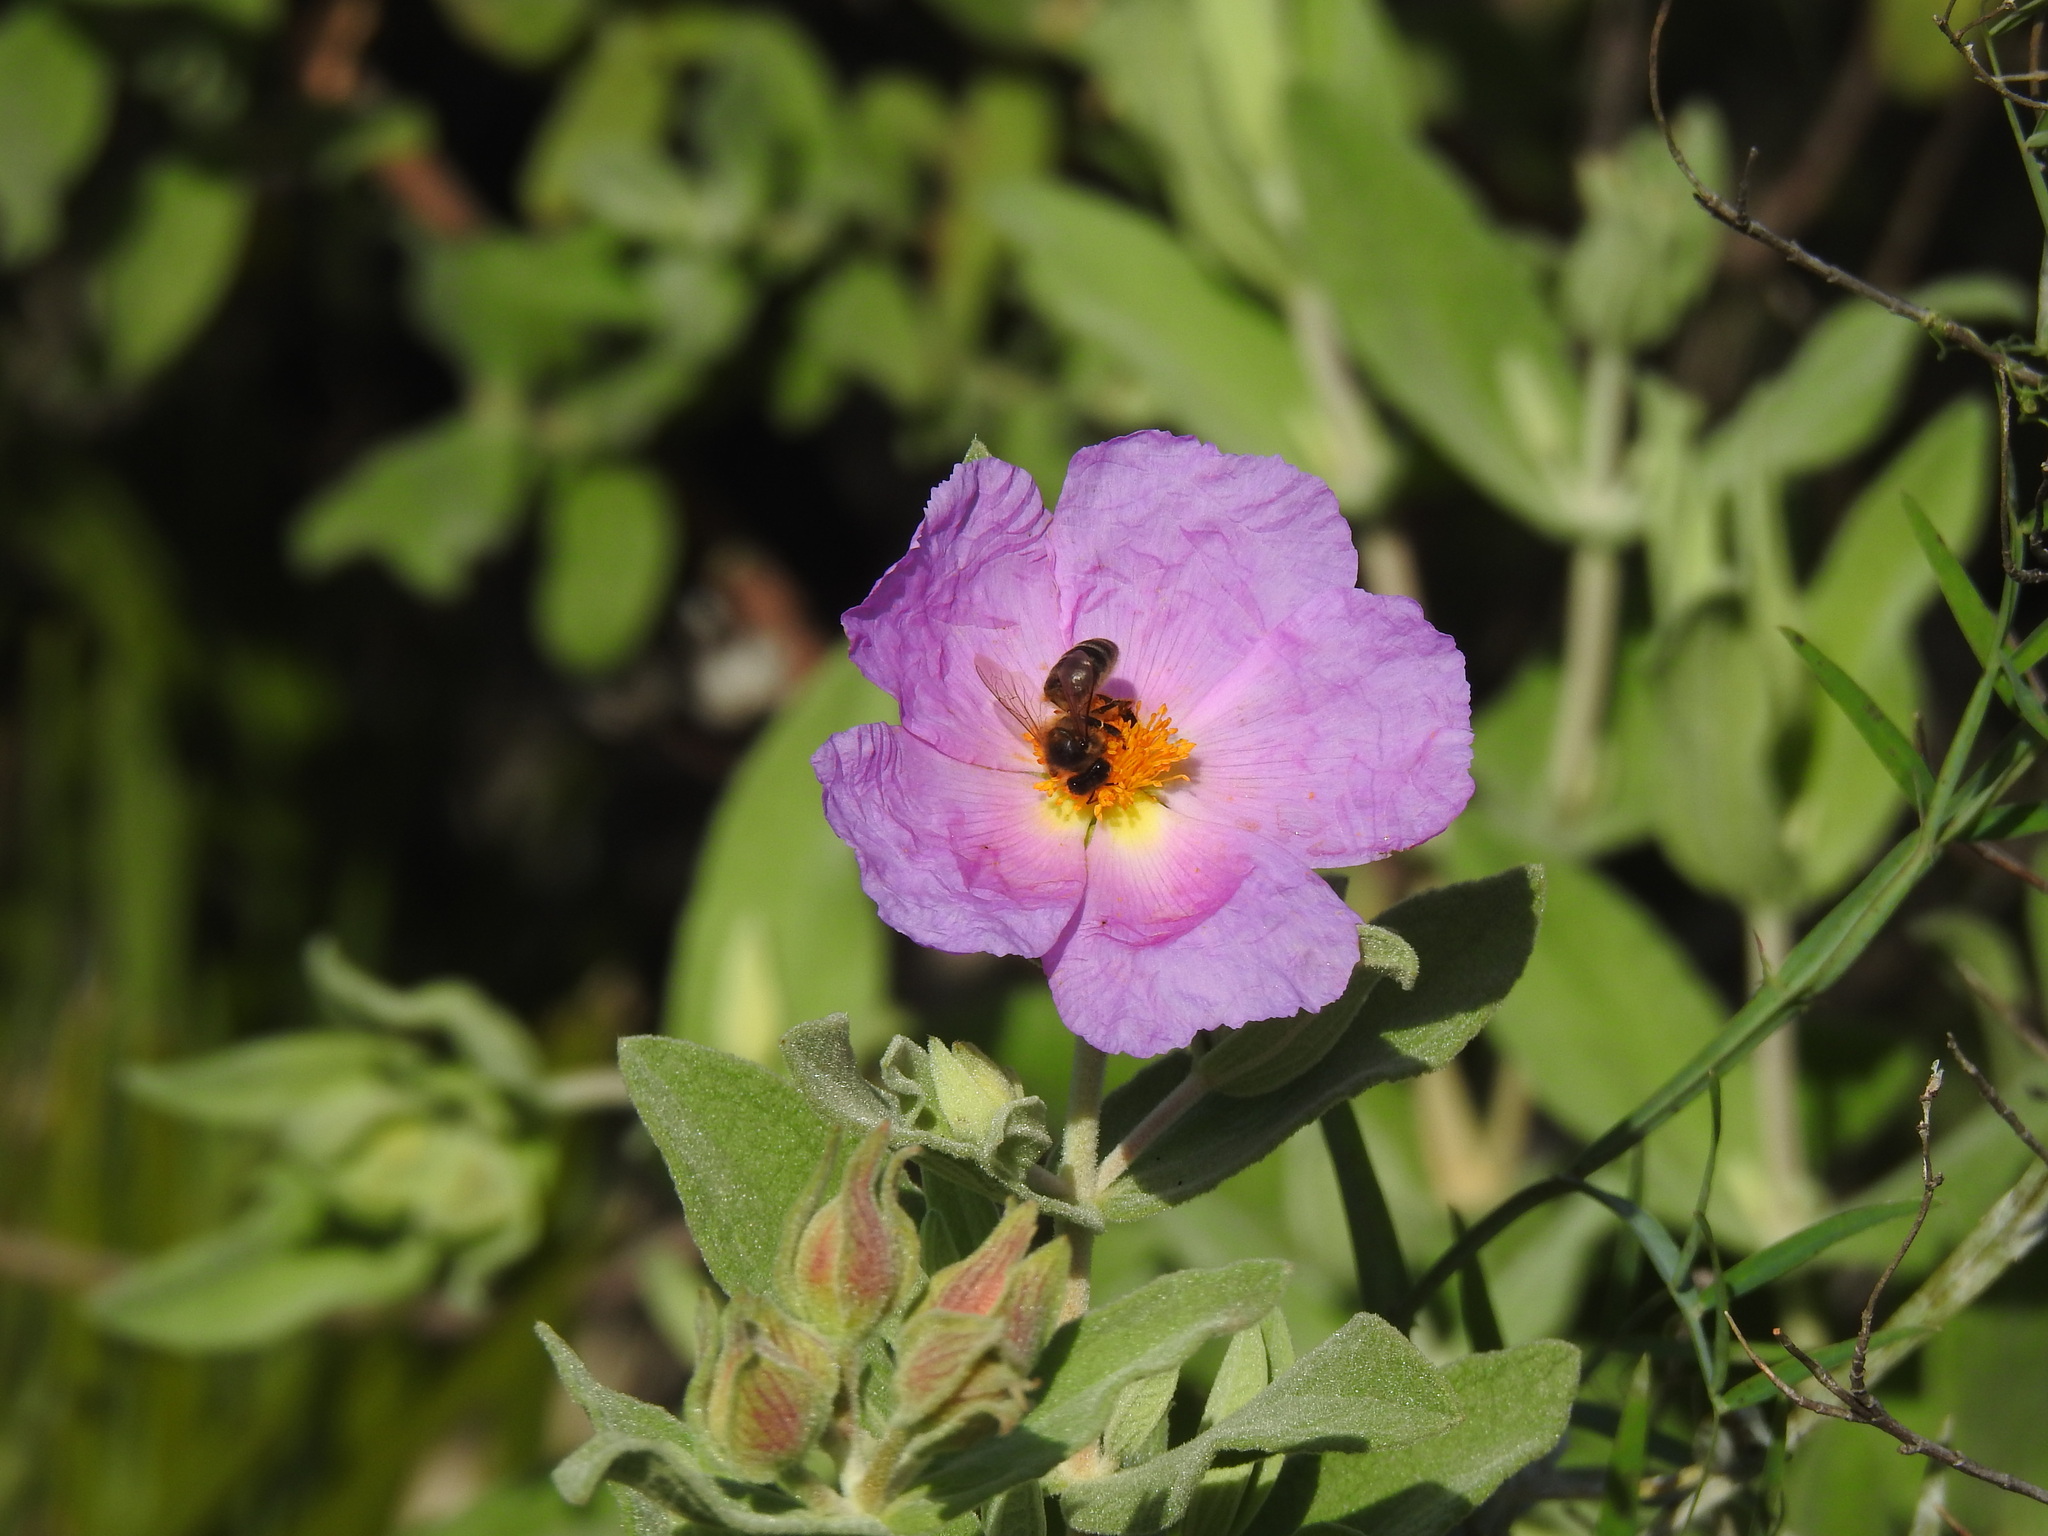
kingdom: Animalia
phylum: Arthropoda
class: Insecta
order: Hymenoptera
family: Apidae
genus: Apis
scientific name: Apis mellifera
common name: Honey bee
